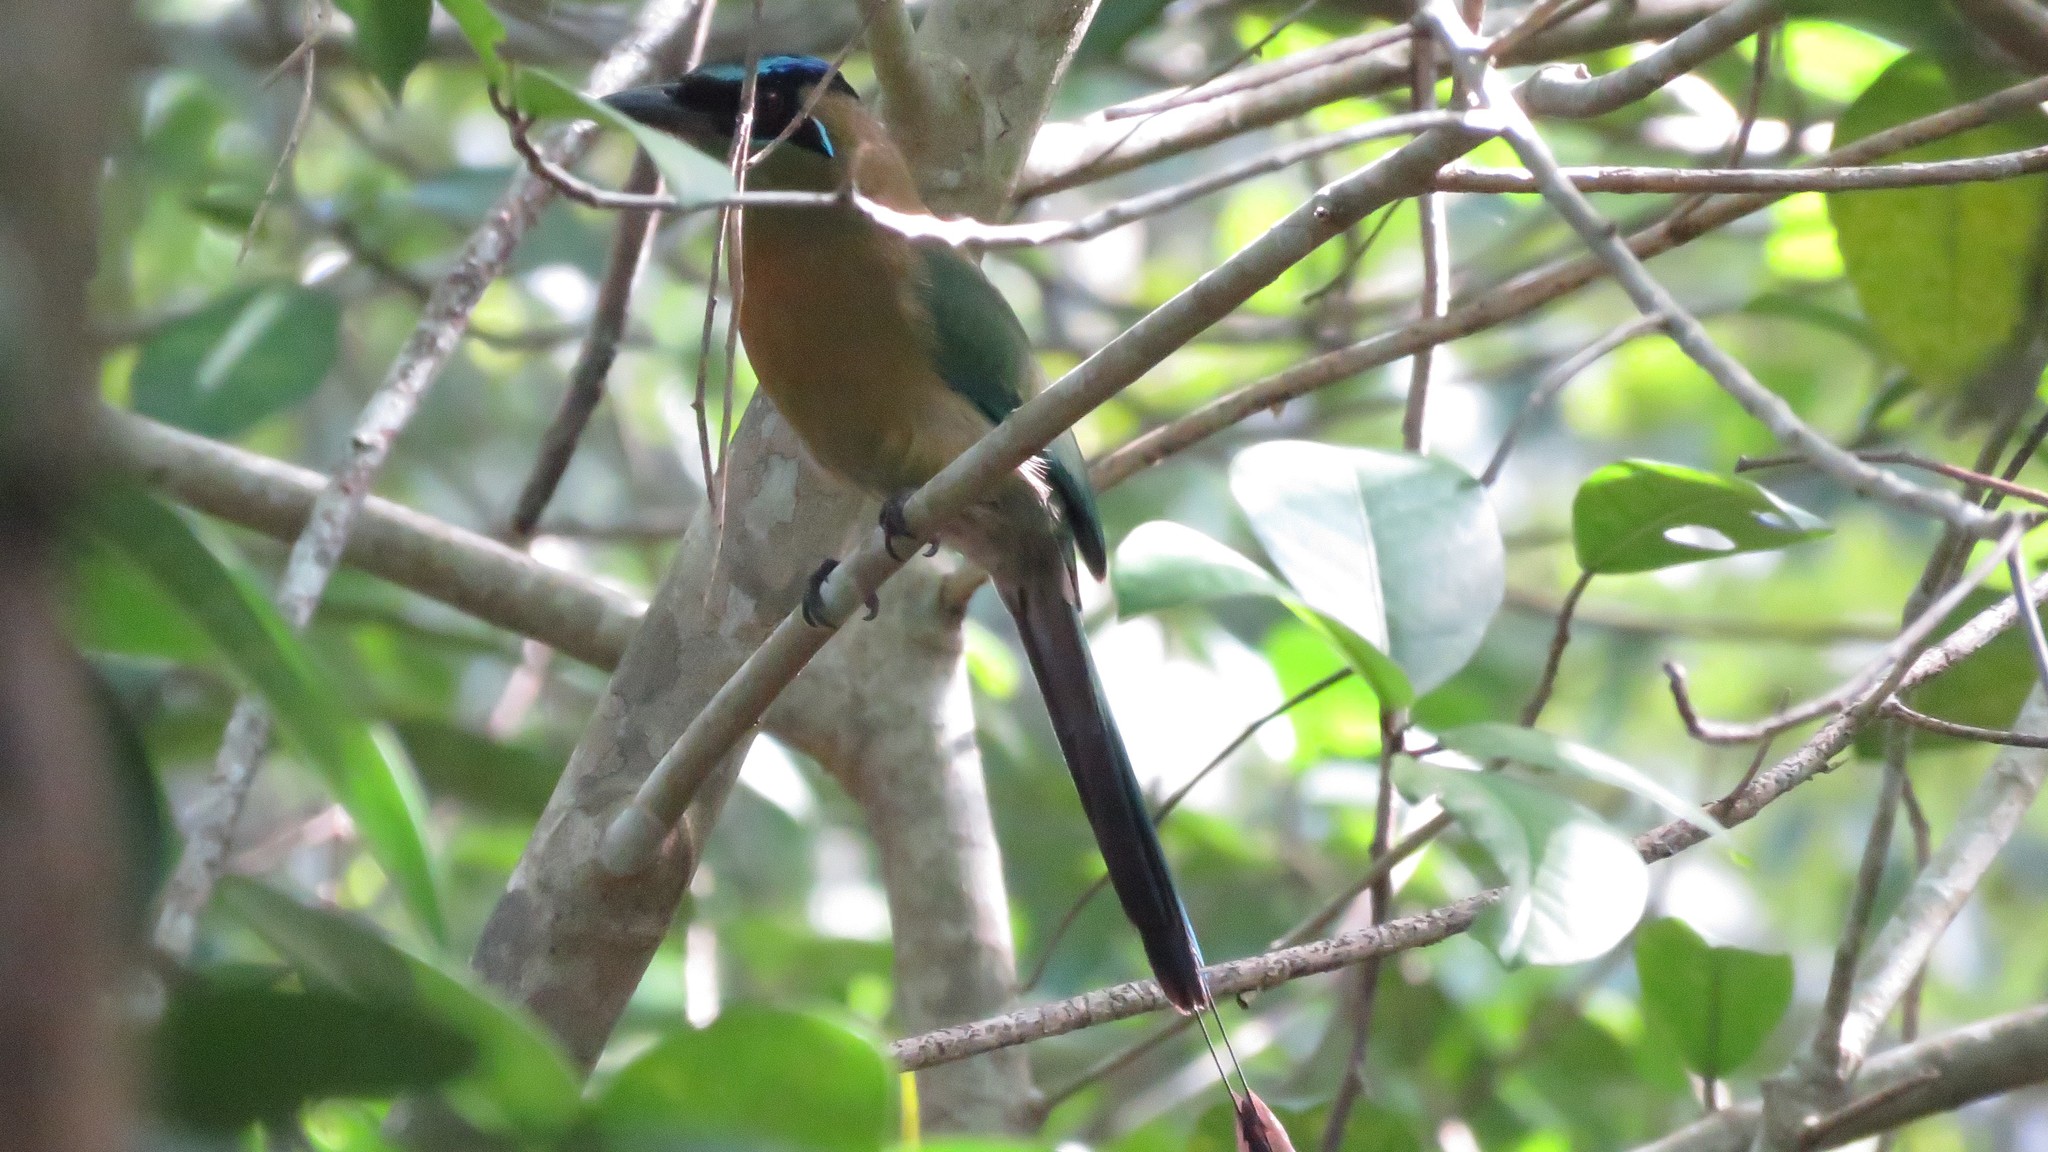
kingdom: Animalia
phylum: Chordata
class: Aves
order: Coraciiformes
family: Momotidae
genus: Momotus
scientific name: Momotus lessonii
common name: Lesson's motmot
